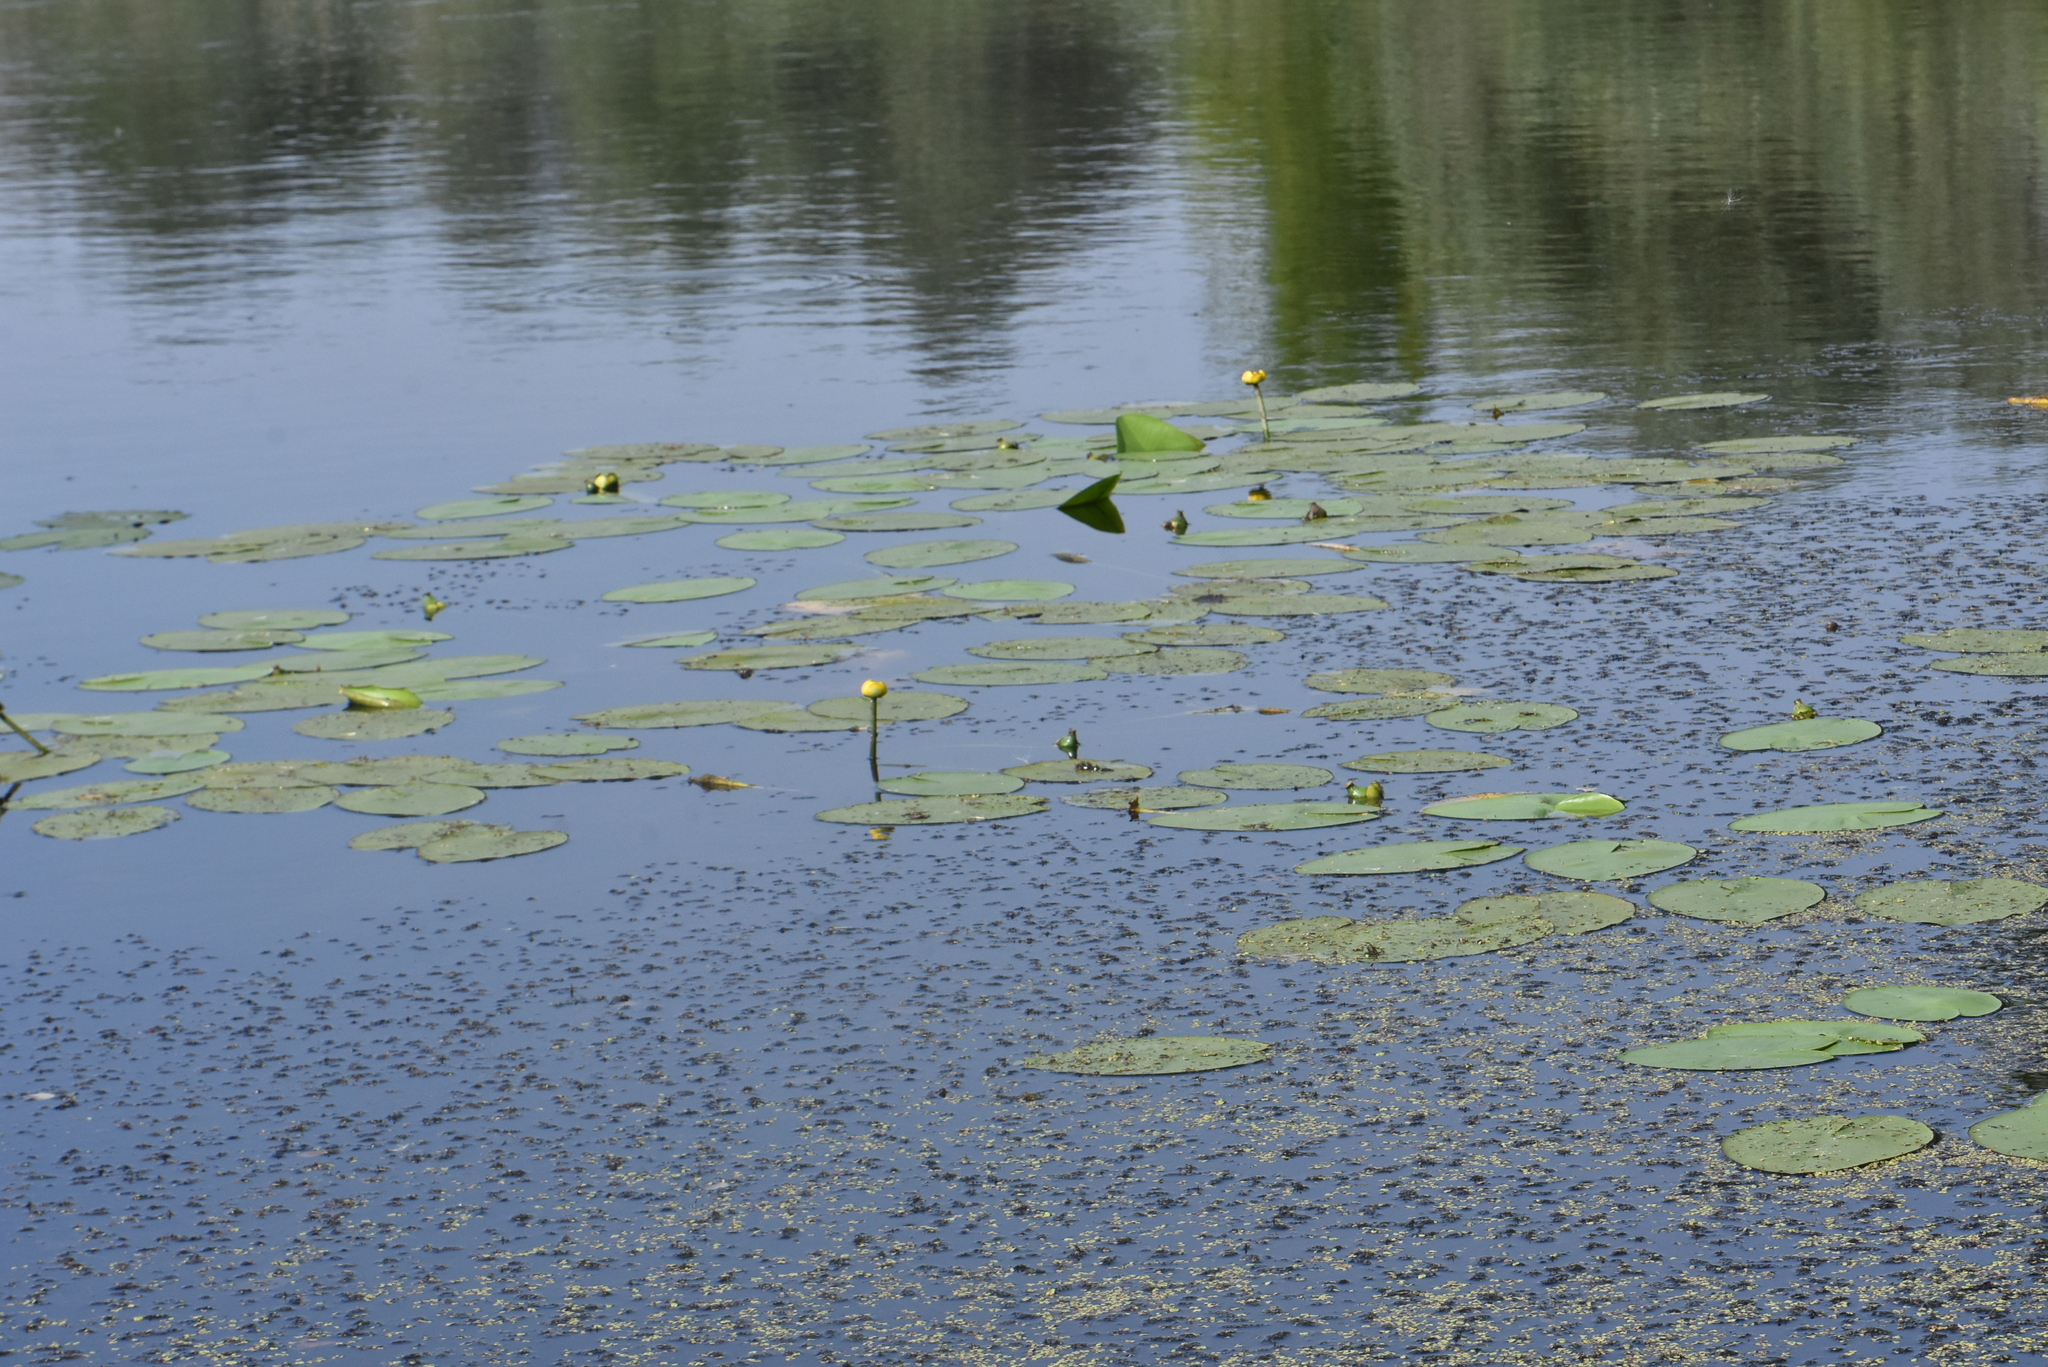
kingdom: Plantae
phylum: Tracheophyta
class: Magnoliopsida
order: Nymphaeales
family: Nymphaeaceae
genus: Nuphar
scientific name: Nuphar lutea
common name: Yellow water-lily
